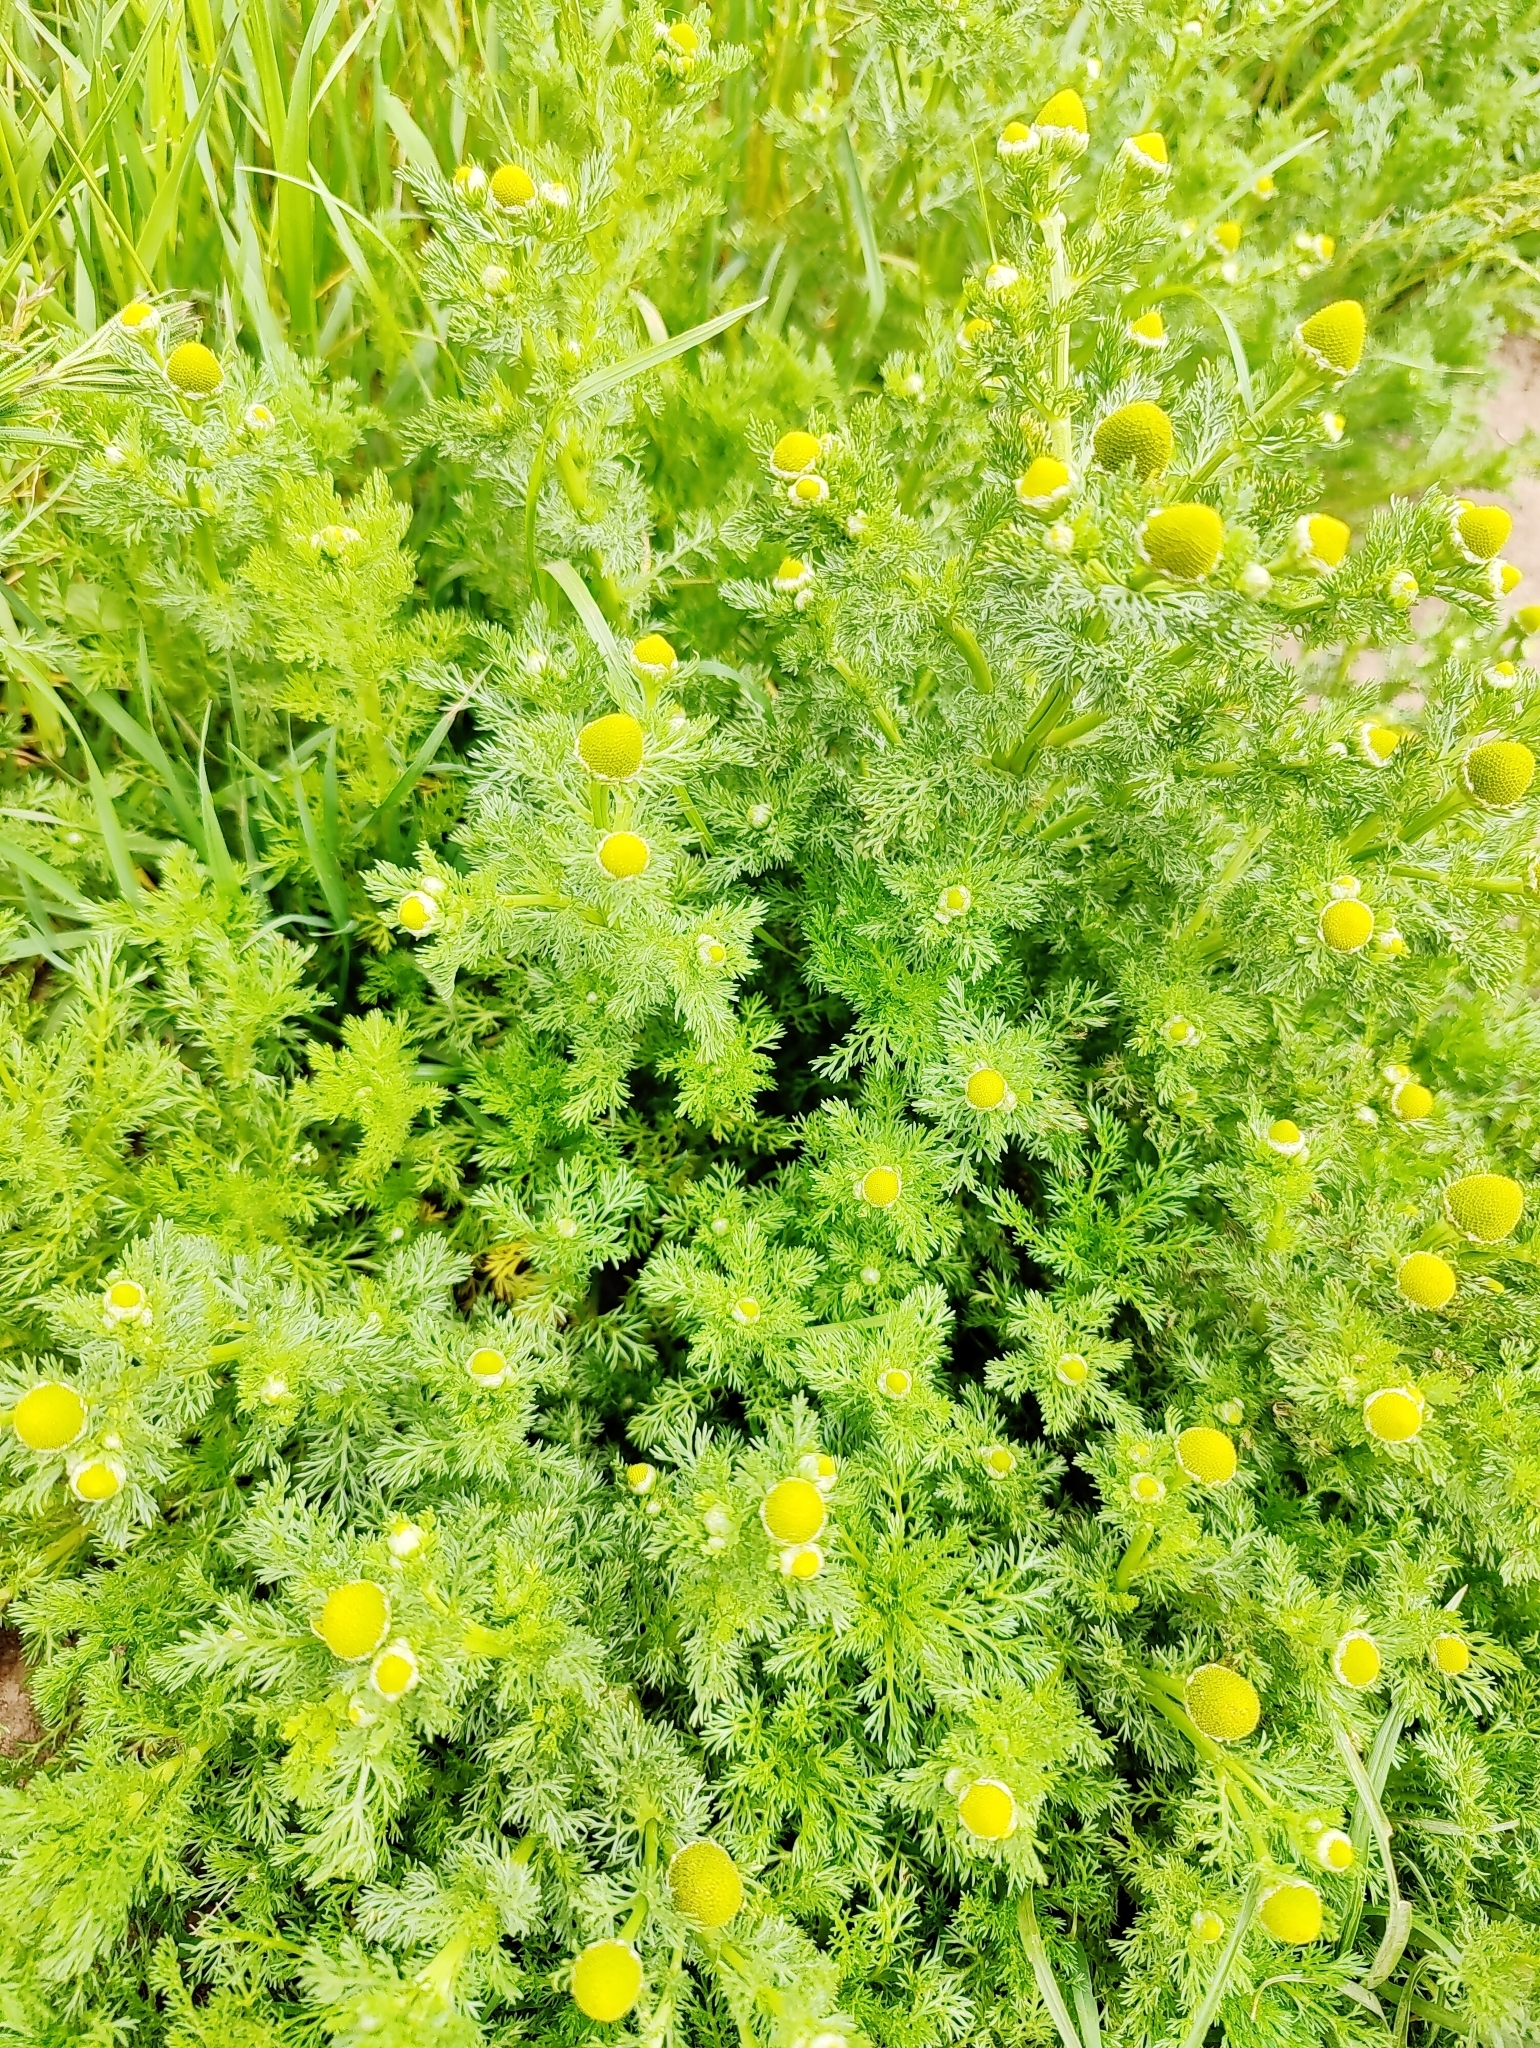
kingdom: Plantae
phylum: Tracheophyta
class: Magnoliopsida
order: Asterales
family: Asteraceae
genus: Matricaria
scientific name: Matricaria discoidea
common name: Disc mayweed
